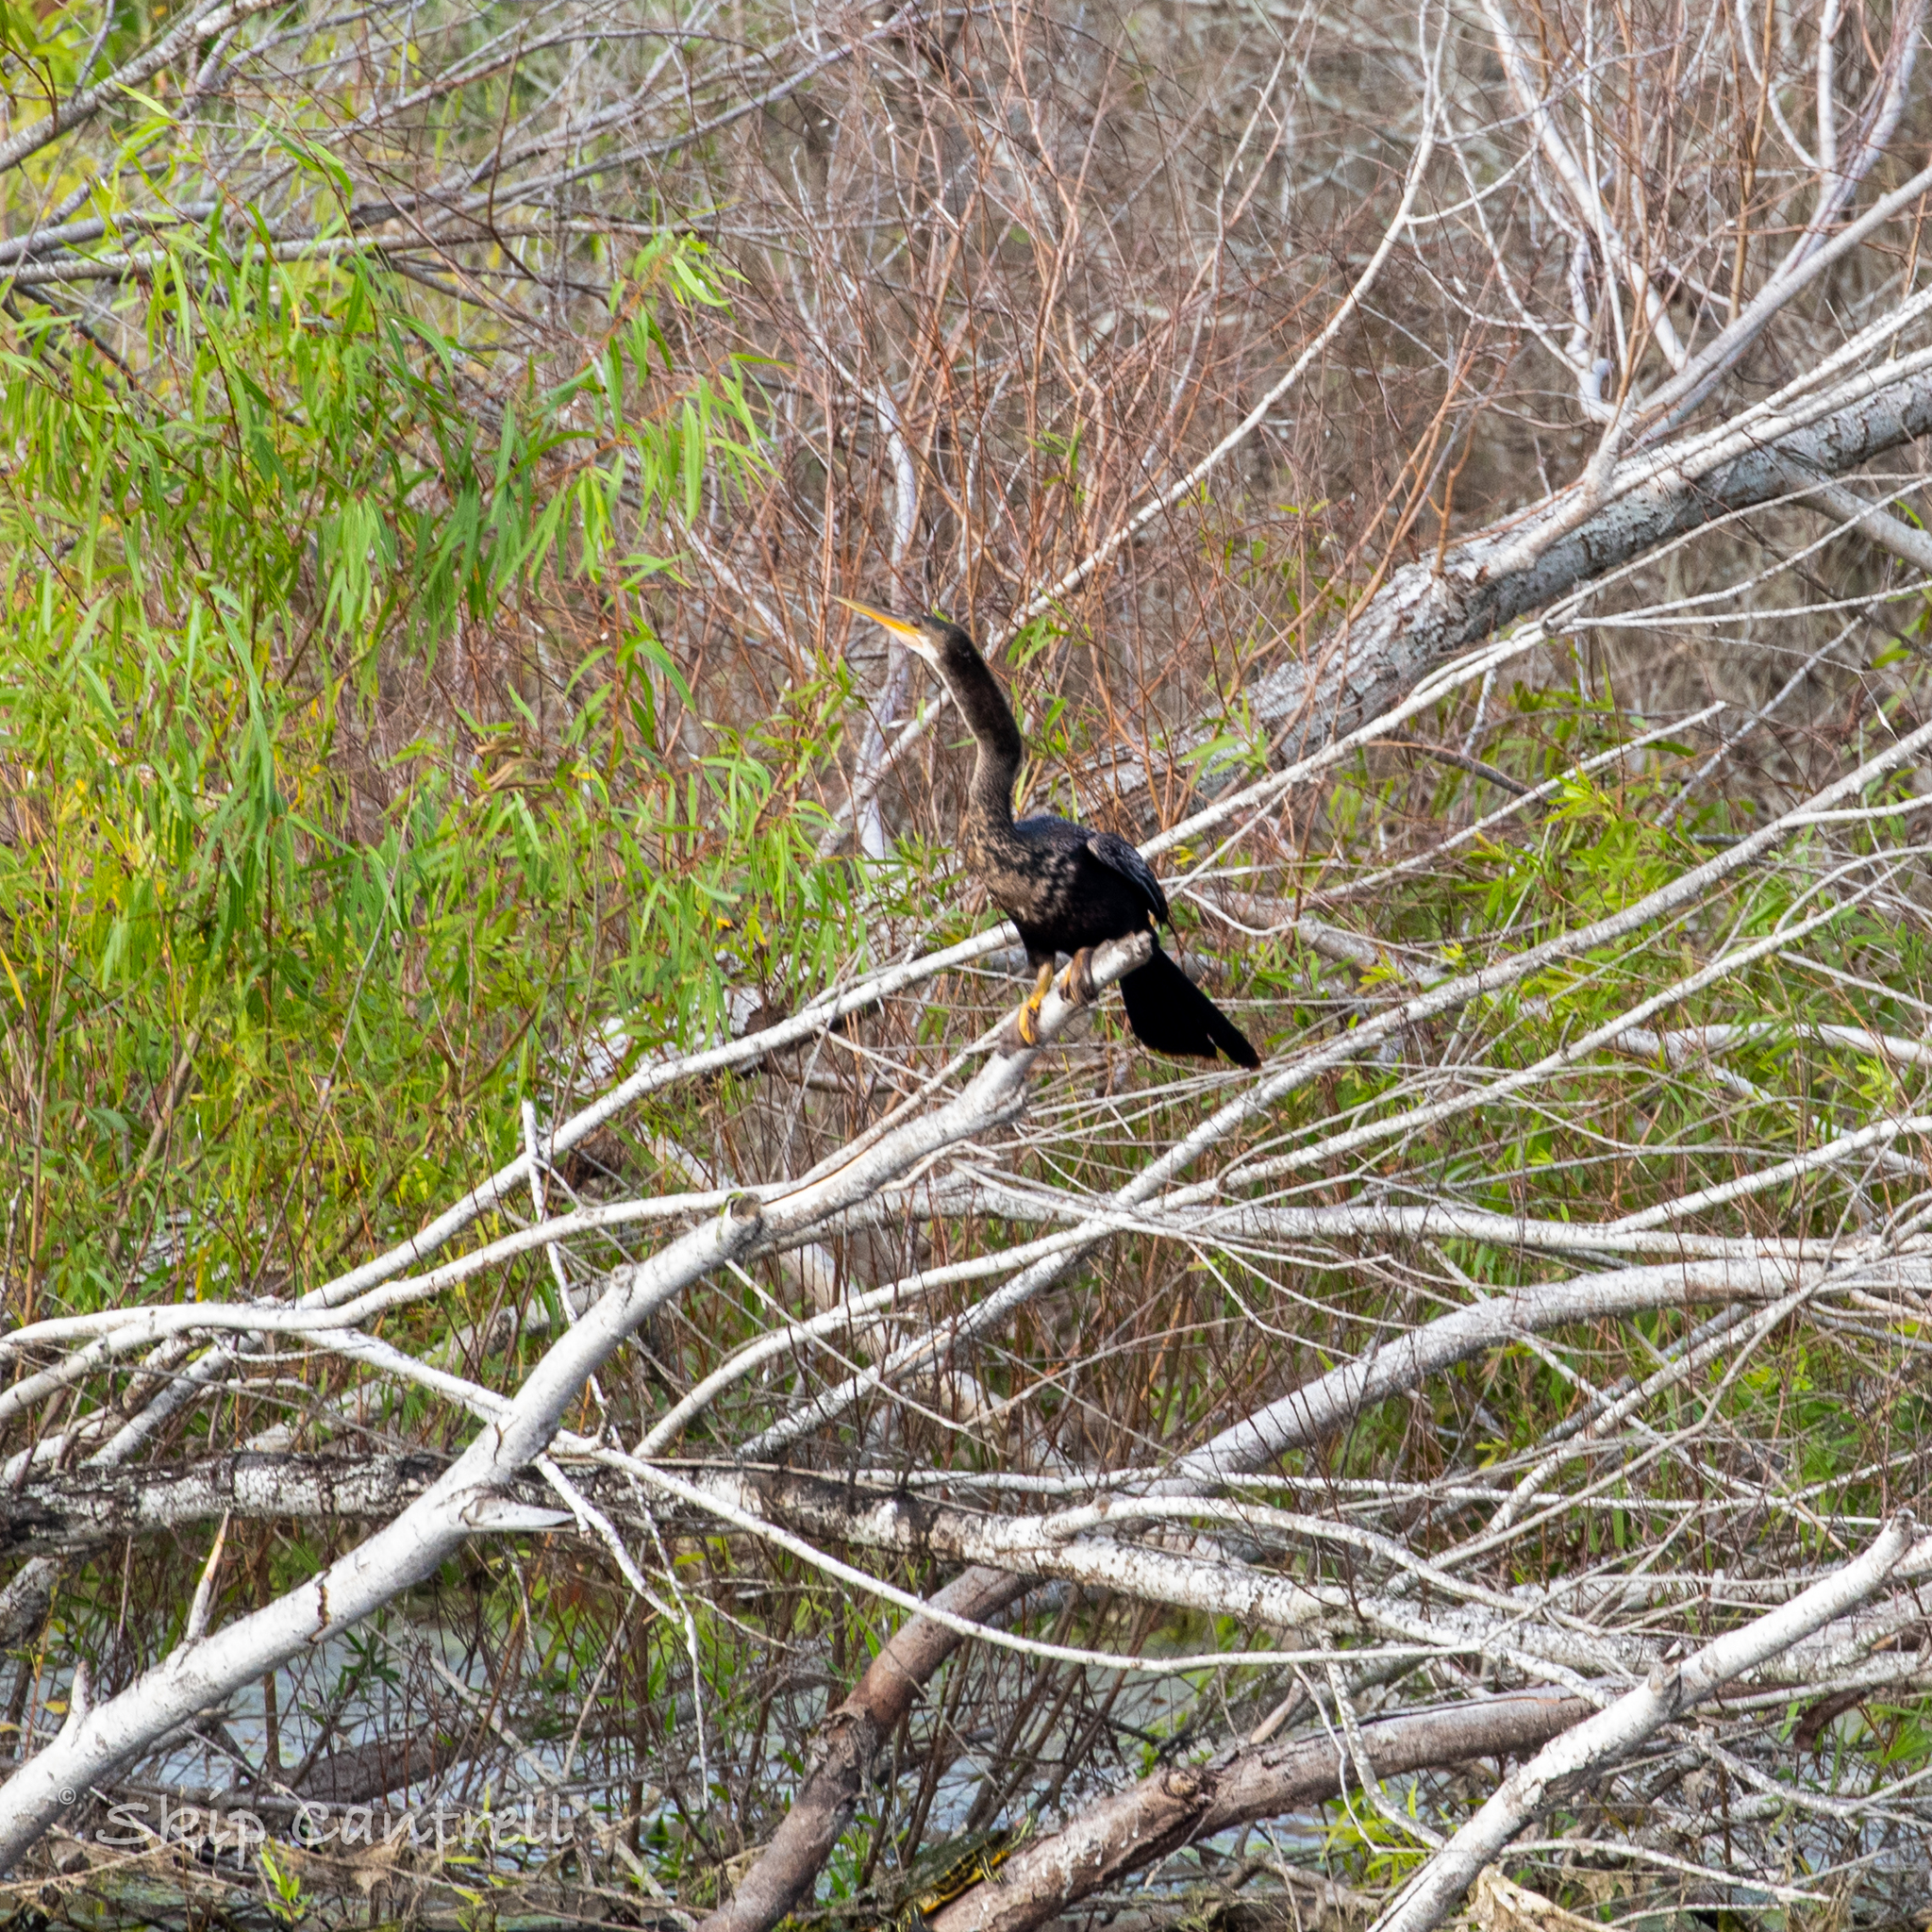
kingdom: Animalia
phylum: Chordata
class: Aves
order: Suliformes
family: Anhingidae
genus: Anhinga
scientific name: Anhinga anhinga
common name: Anhinga
